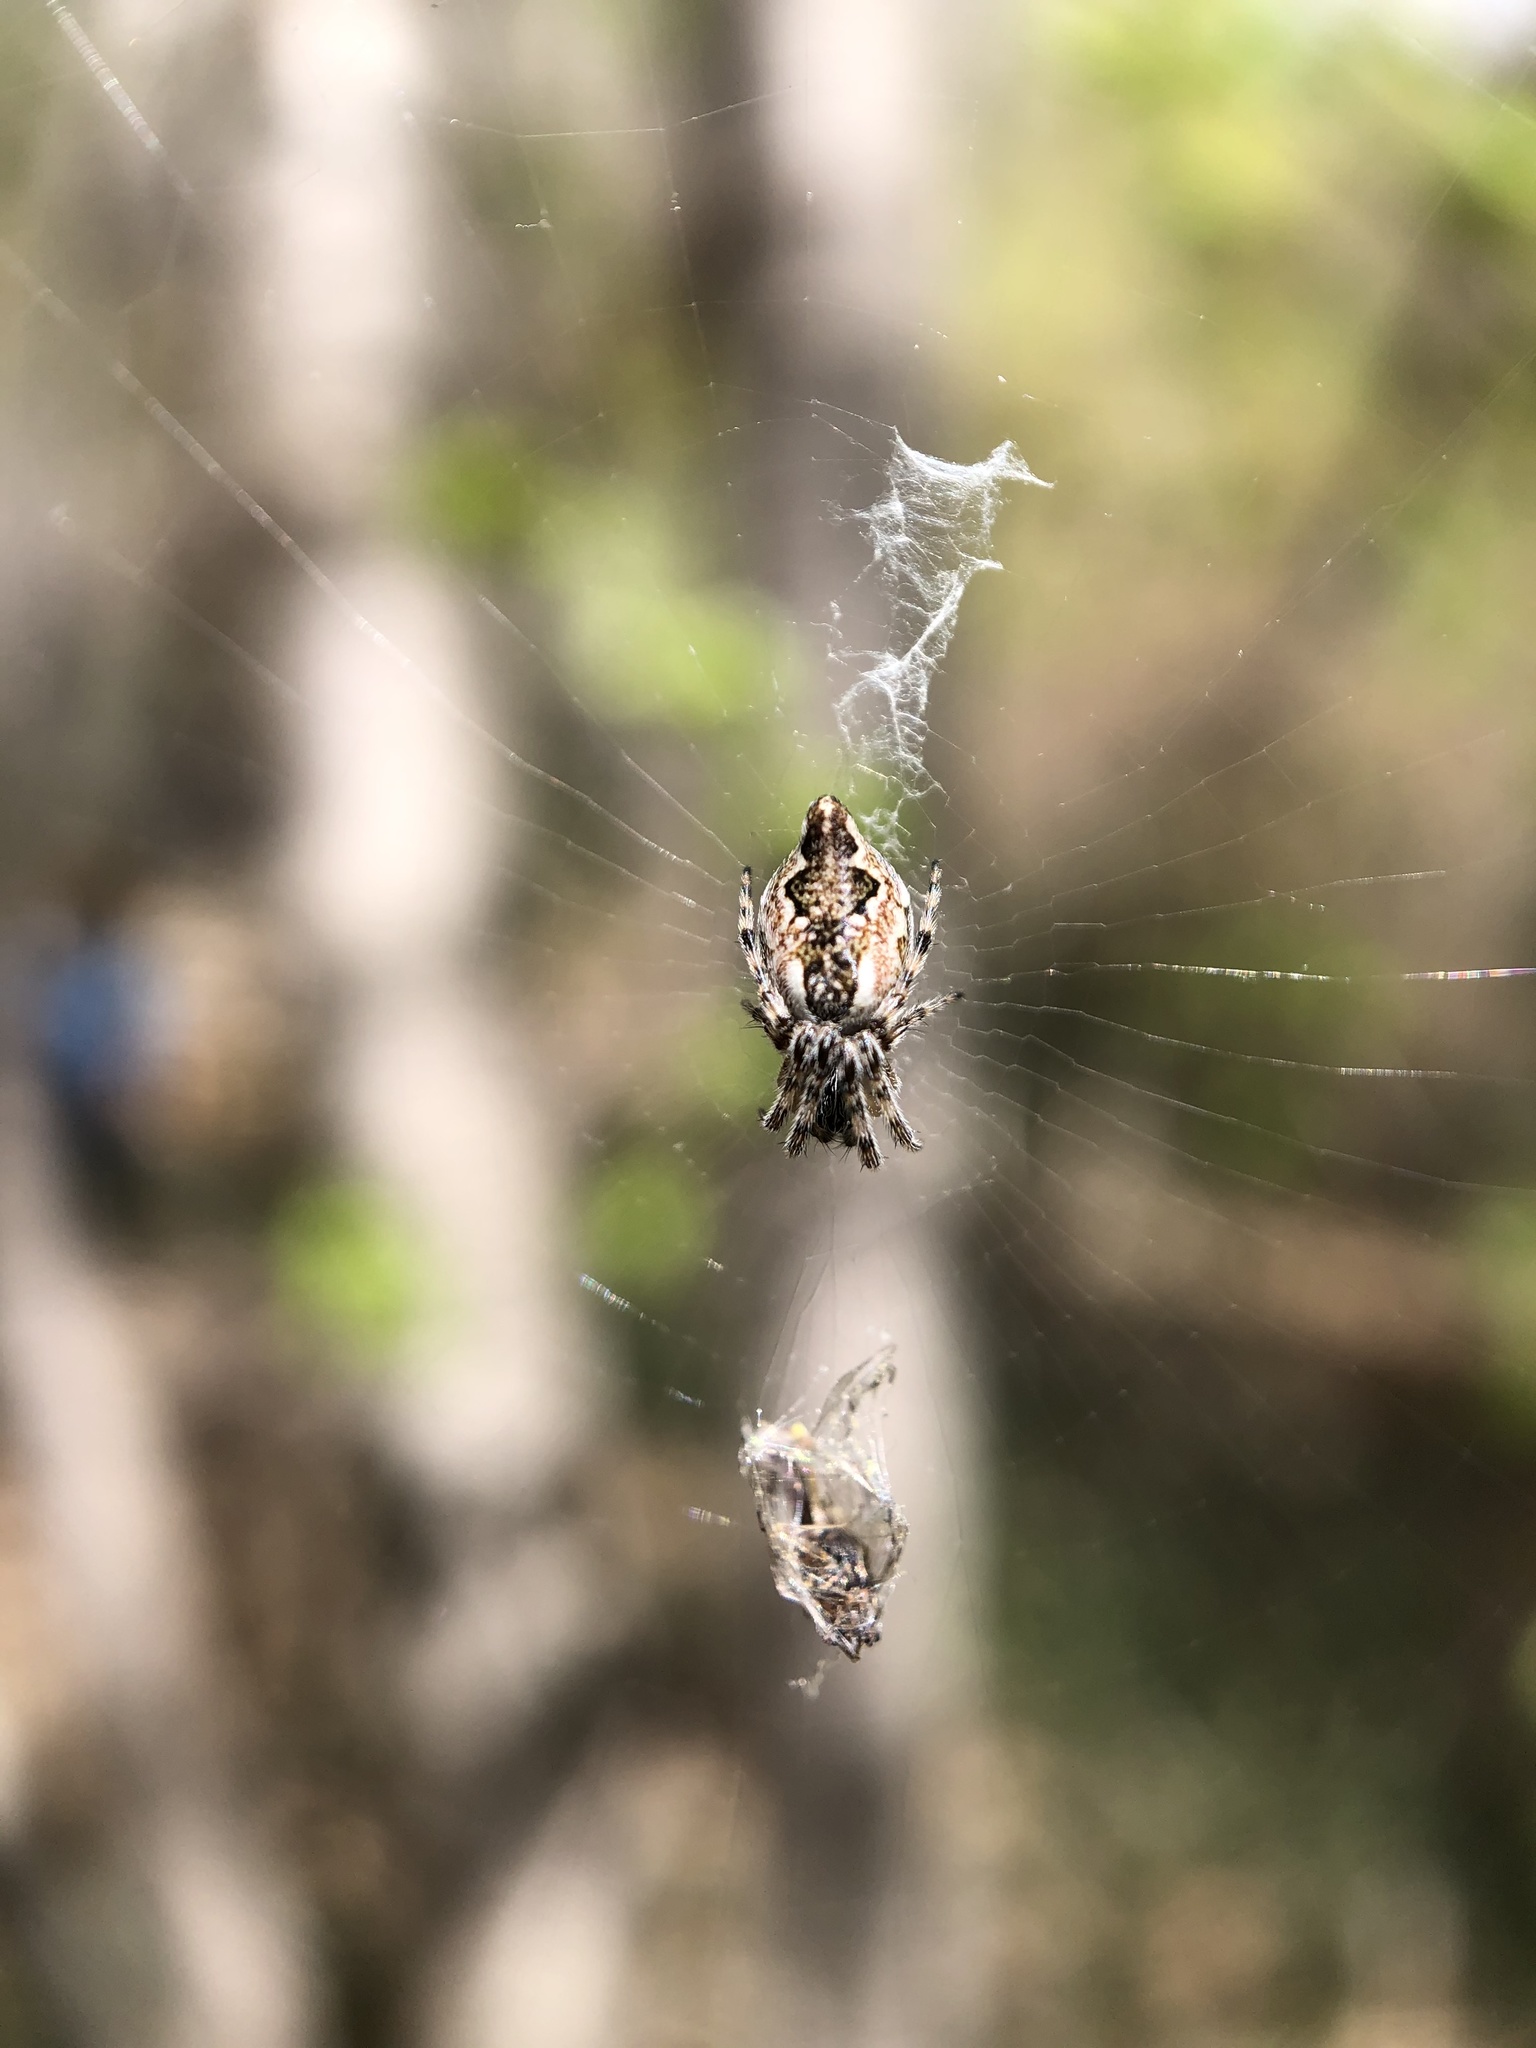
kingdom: Animalia
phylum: Arthropoda
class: Arachnida
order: Araneae
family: Araneidae
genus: Cyclosa
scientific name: Cyclosa conica
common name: Conical trashline orbweaver
